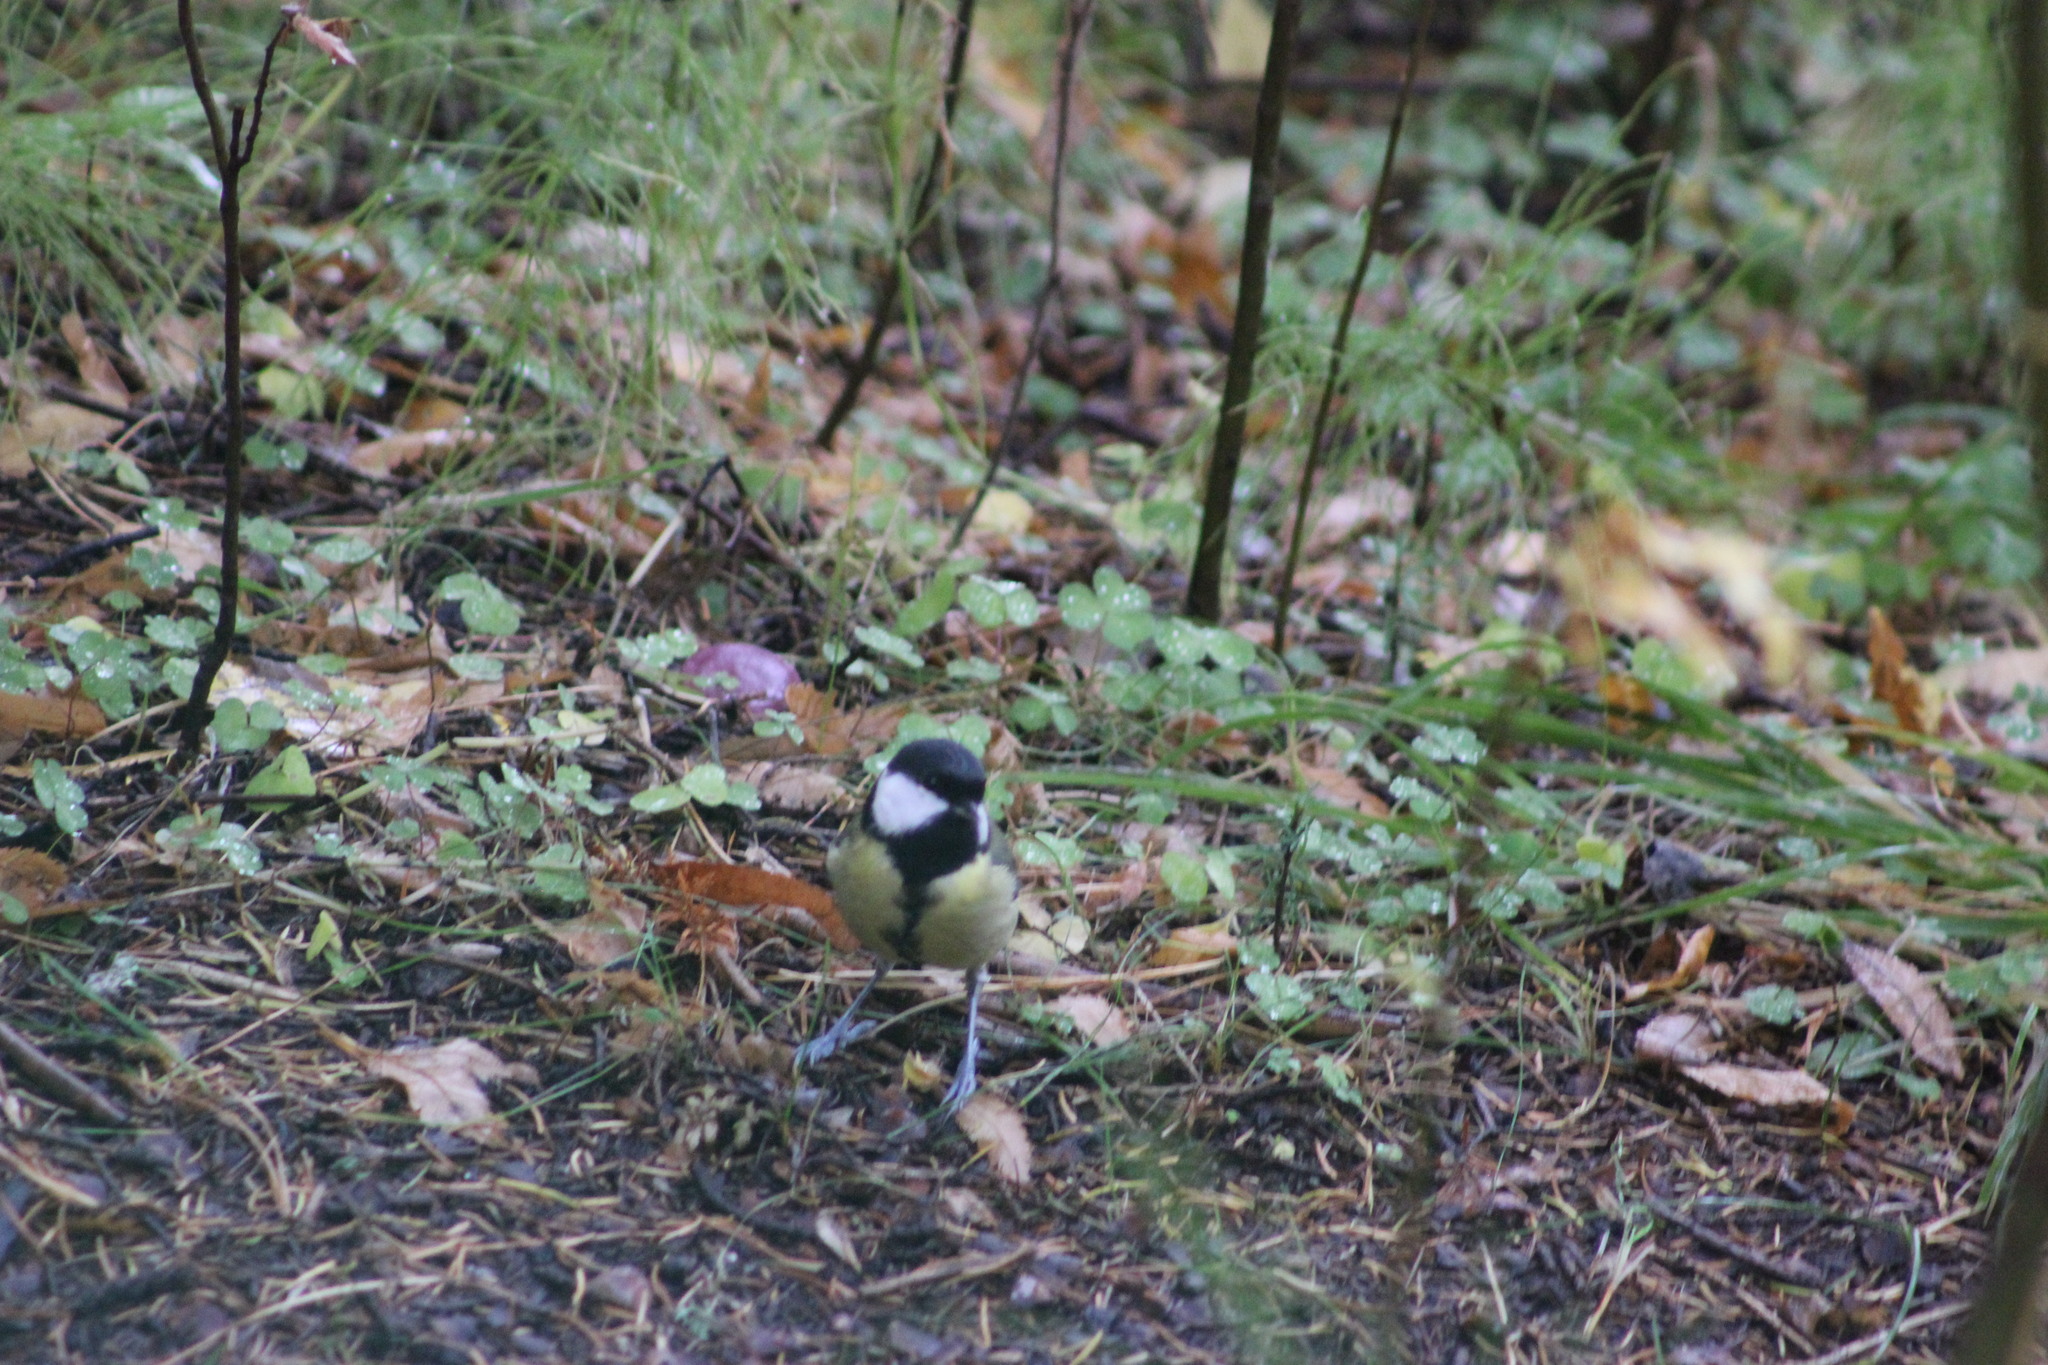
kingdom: Animalia
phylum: Chordata
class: Aves
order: Passeriformes
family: Paridae
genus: Parus
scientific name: Parus major
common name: Great tit
